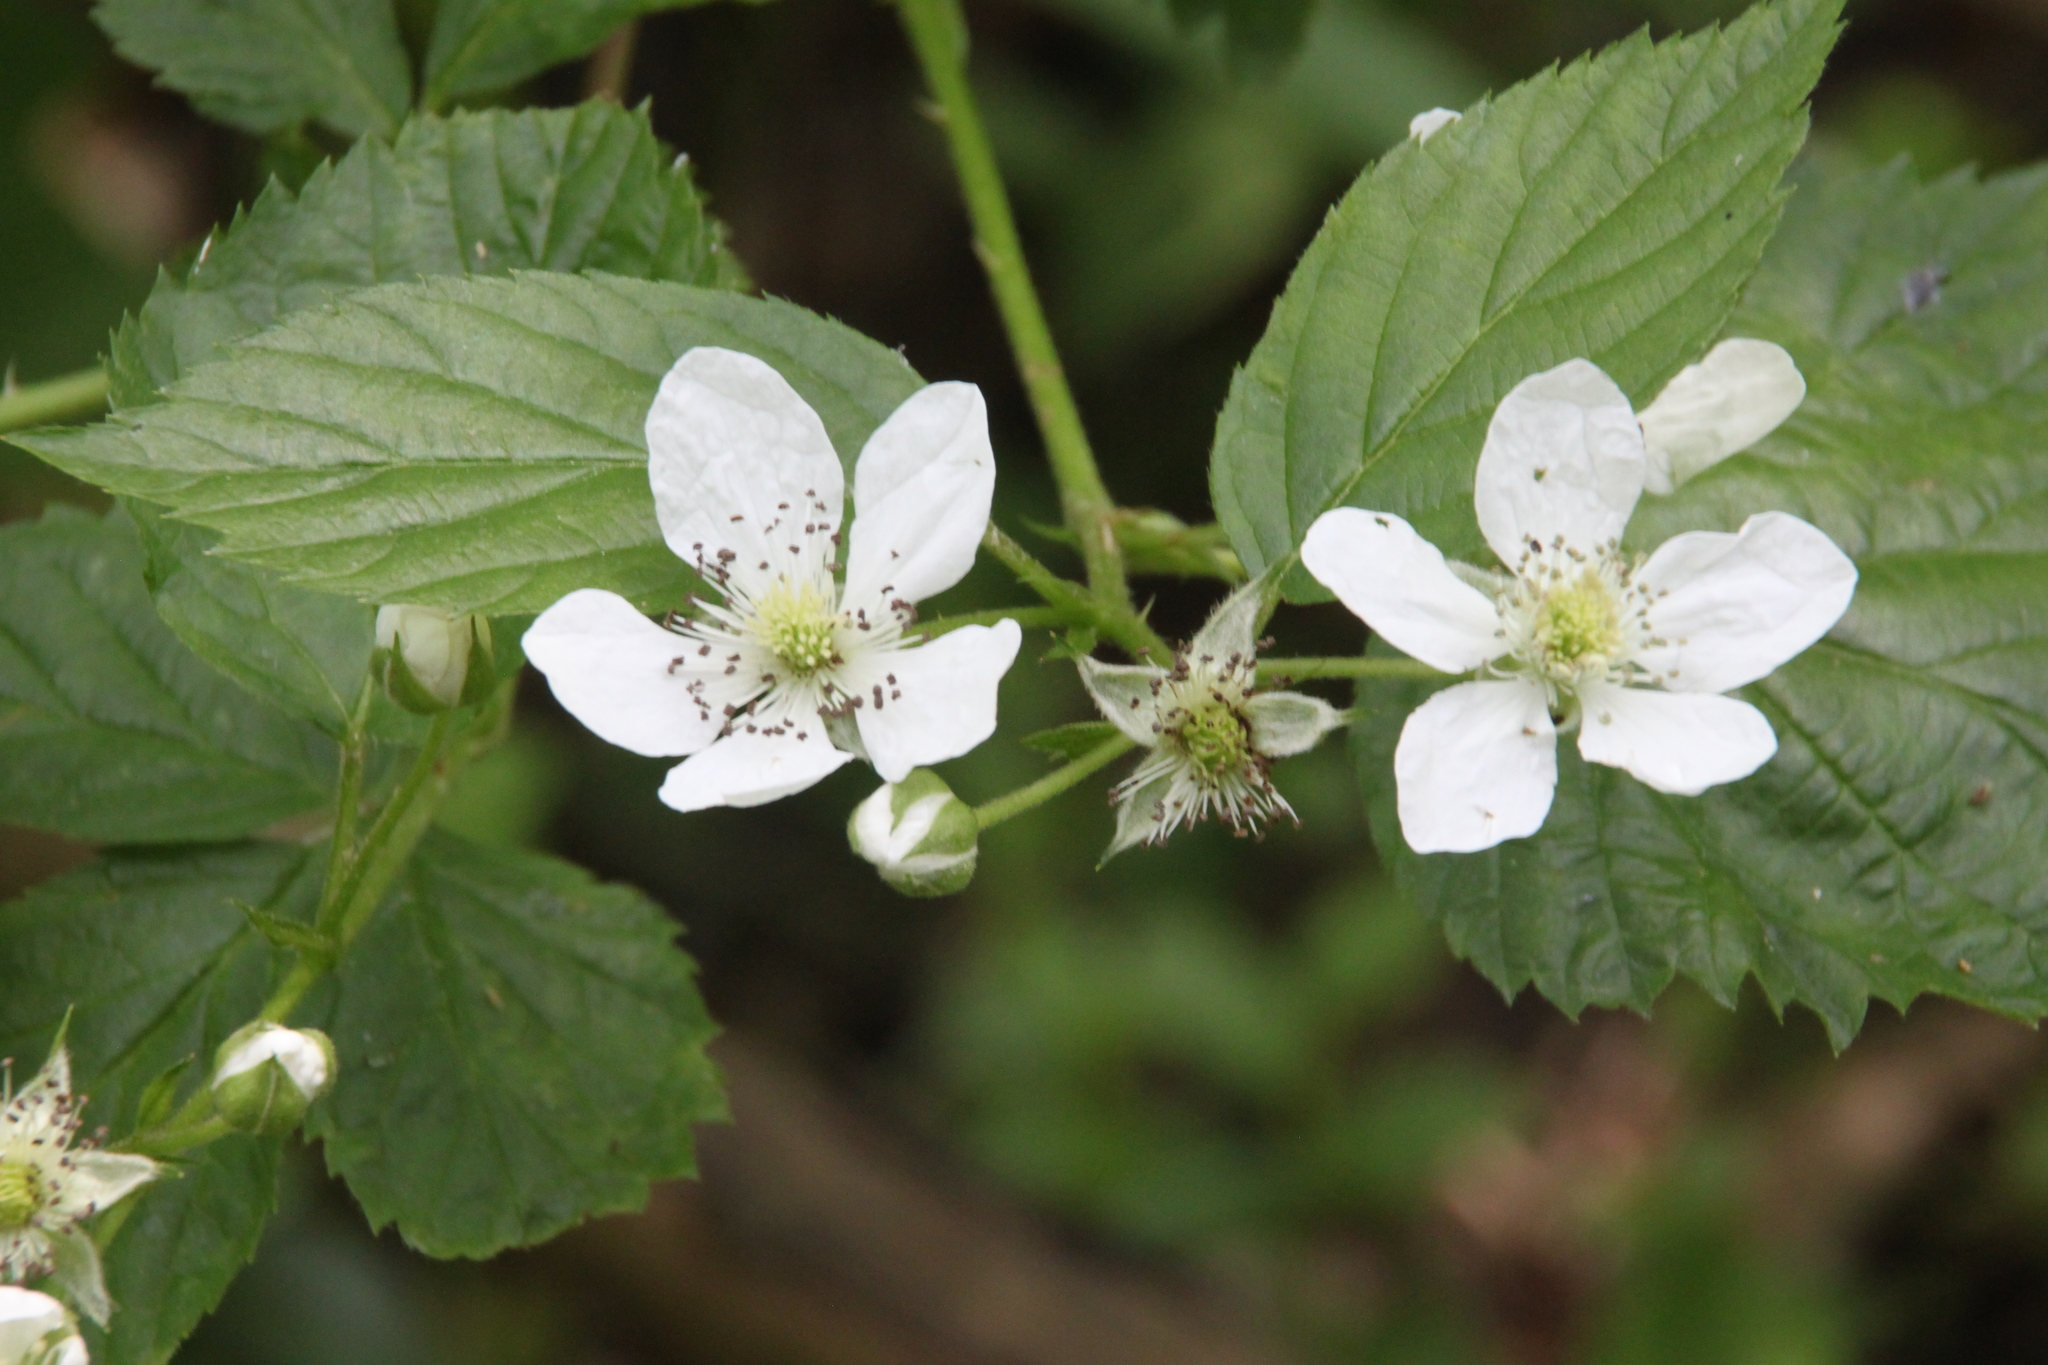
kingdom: Plantae
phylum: Tracheophyta
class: Magnoliopsida
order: Rosales
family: Rosaceae
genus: Rubus
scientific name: Rubus polonicus
